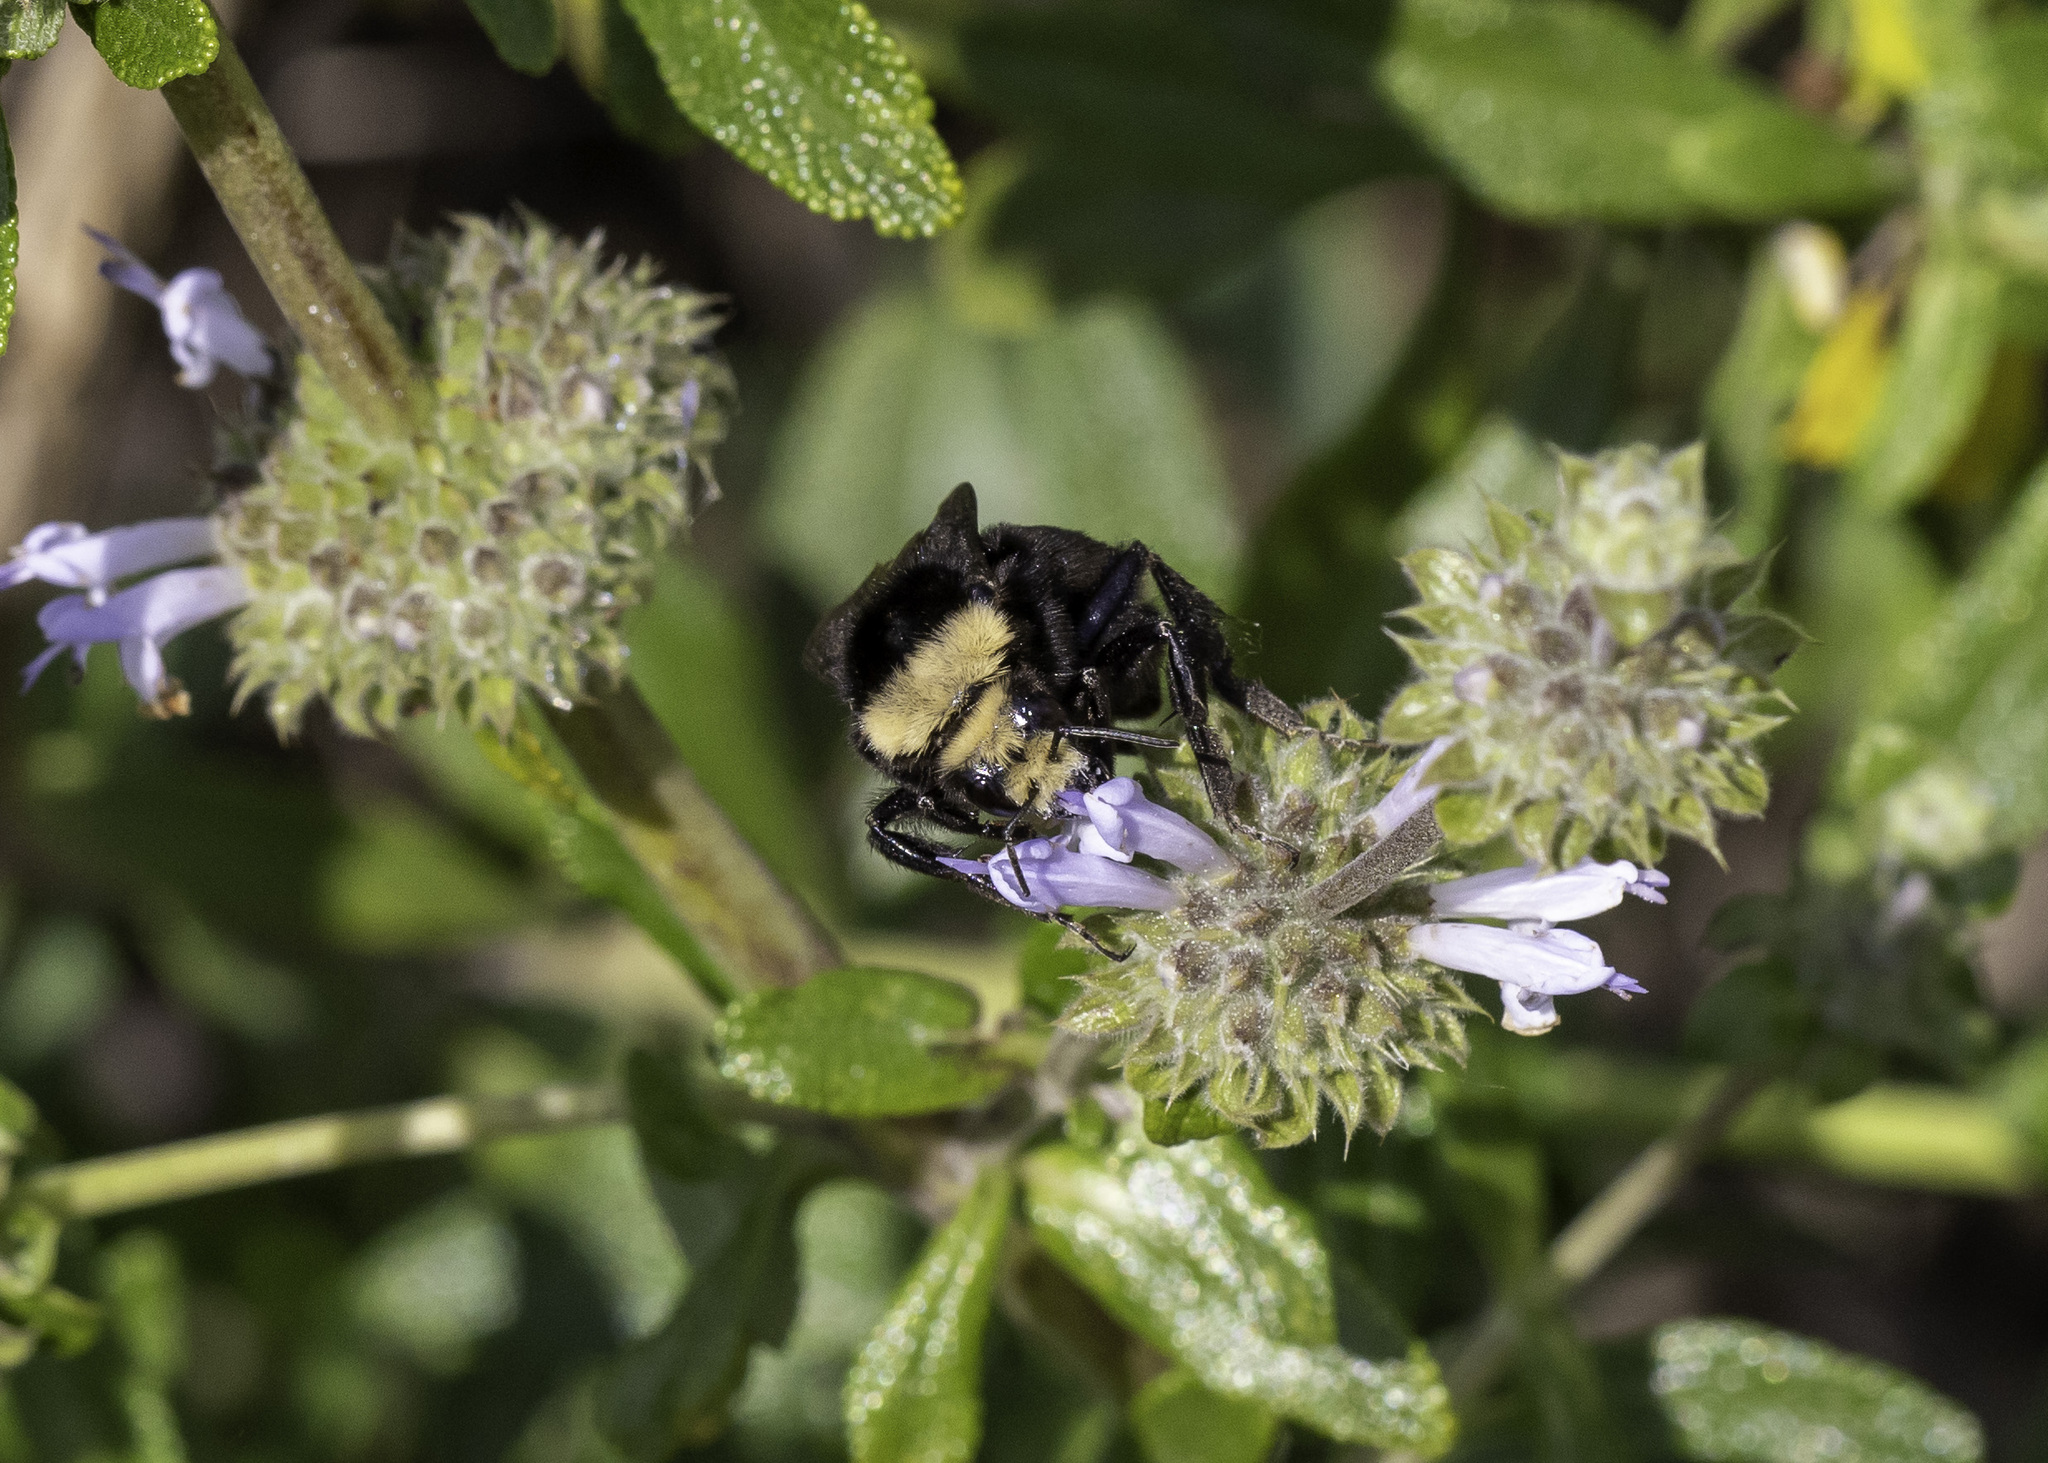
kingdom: Animalia
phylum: Arthropoda
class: Insecta
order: Hymenoptera
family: Apidae
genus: Bombus
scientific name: Bombus vosnesenskii
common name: Vosnesensky bumble bee
